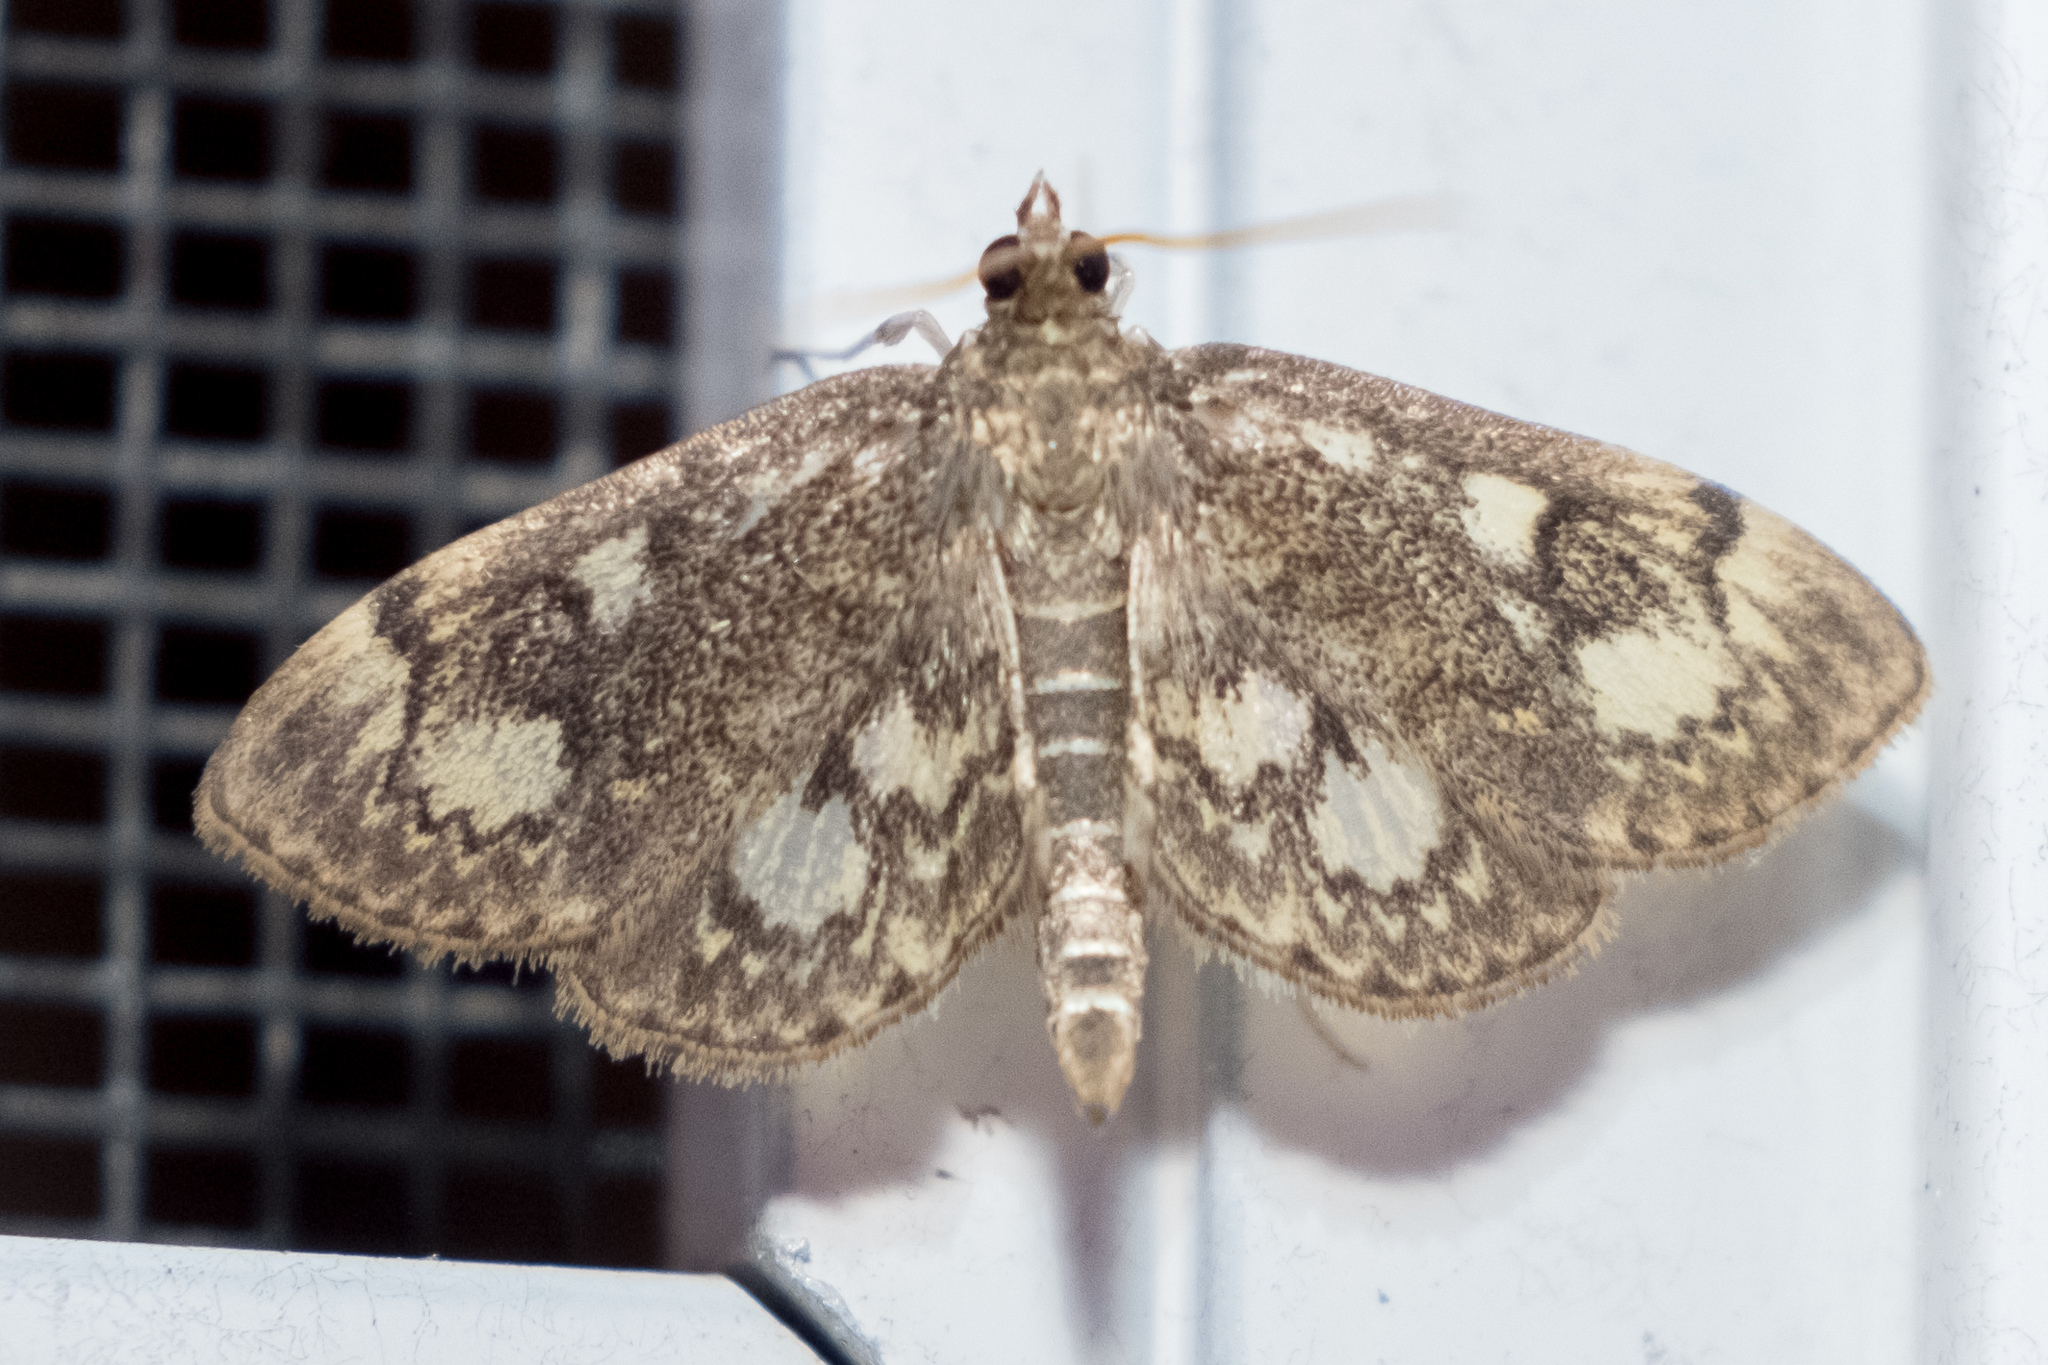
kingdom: Animalia
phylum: Arthropoda
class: Insecta
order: Lepidoptera
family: Crambidae
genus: Anania
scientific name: Anania
